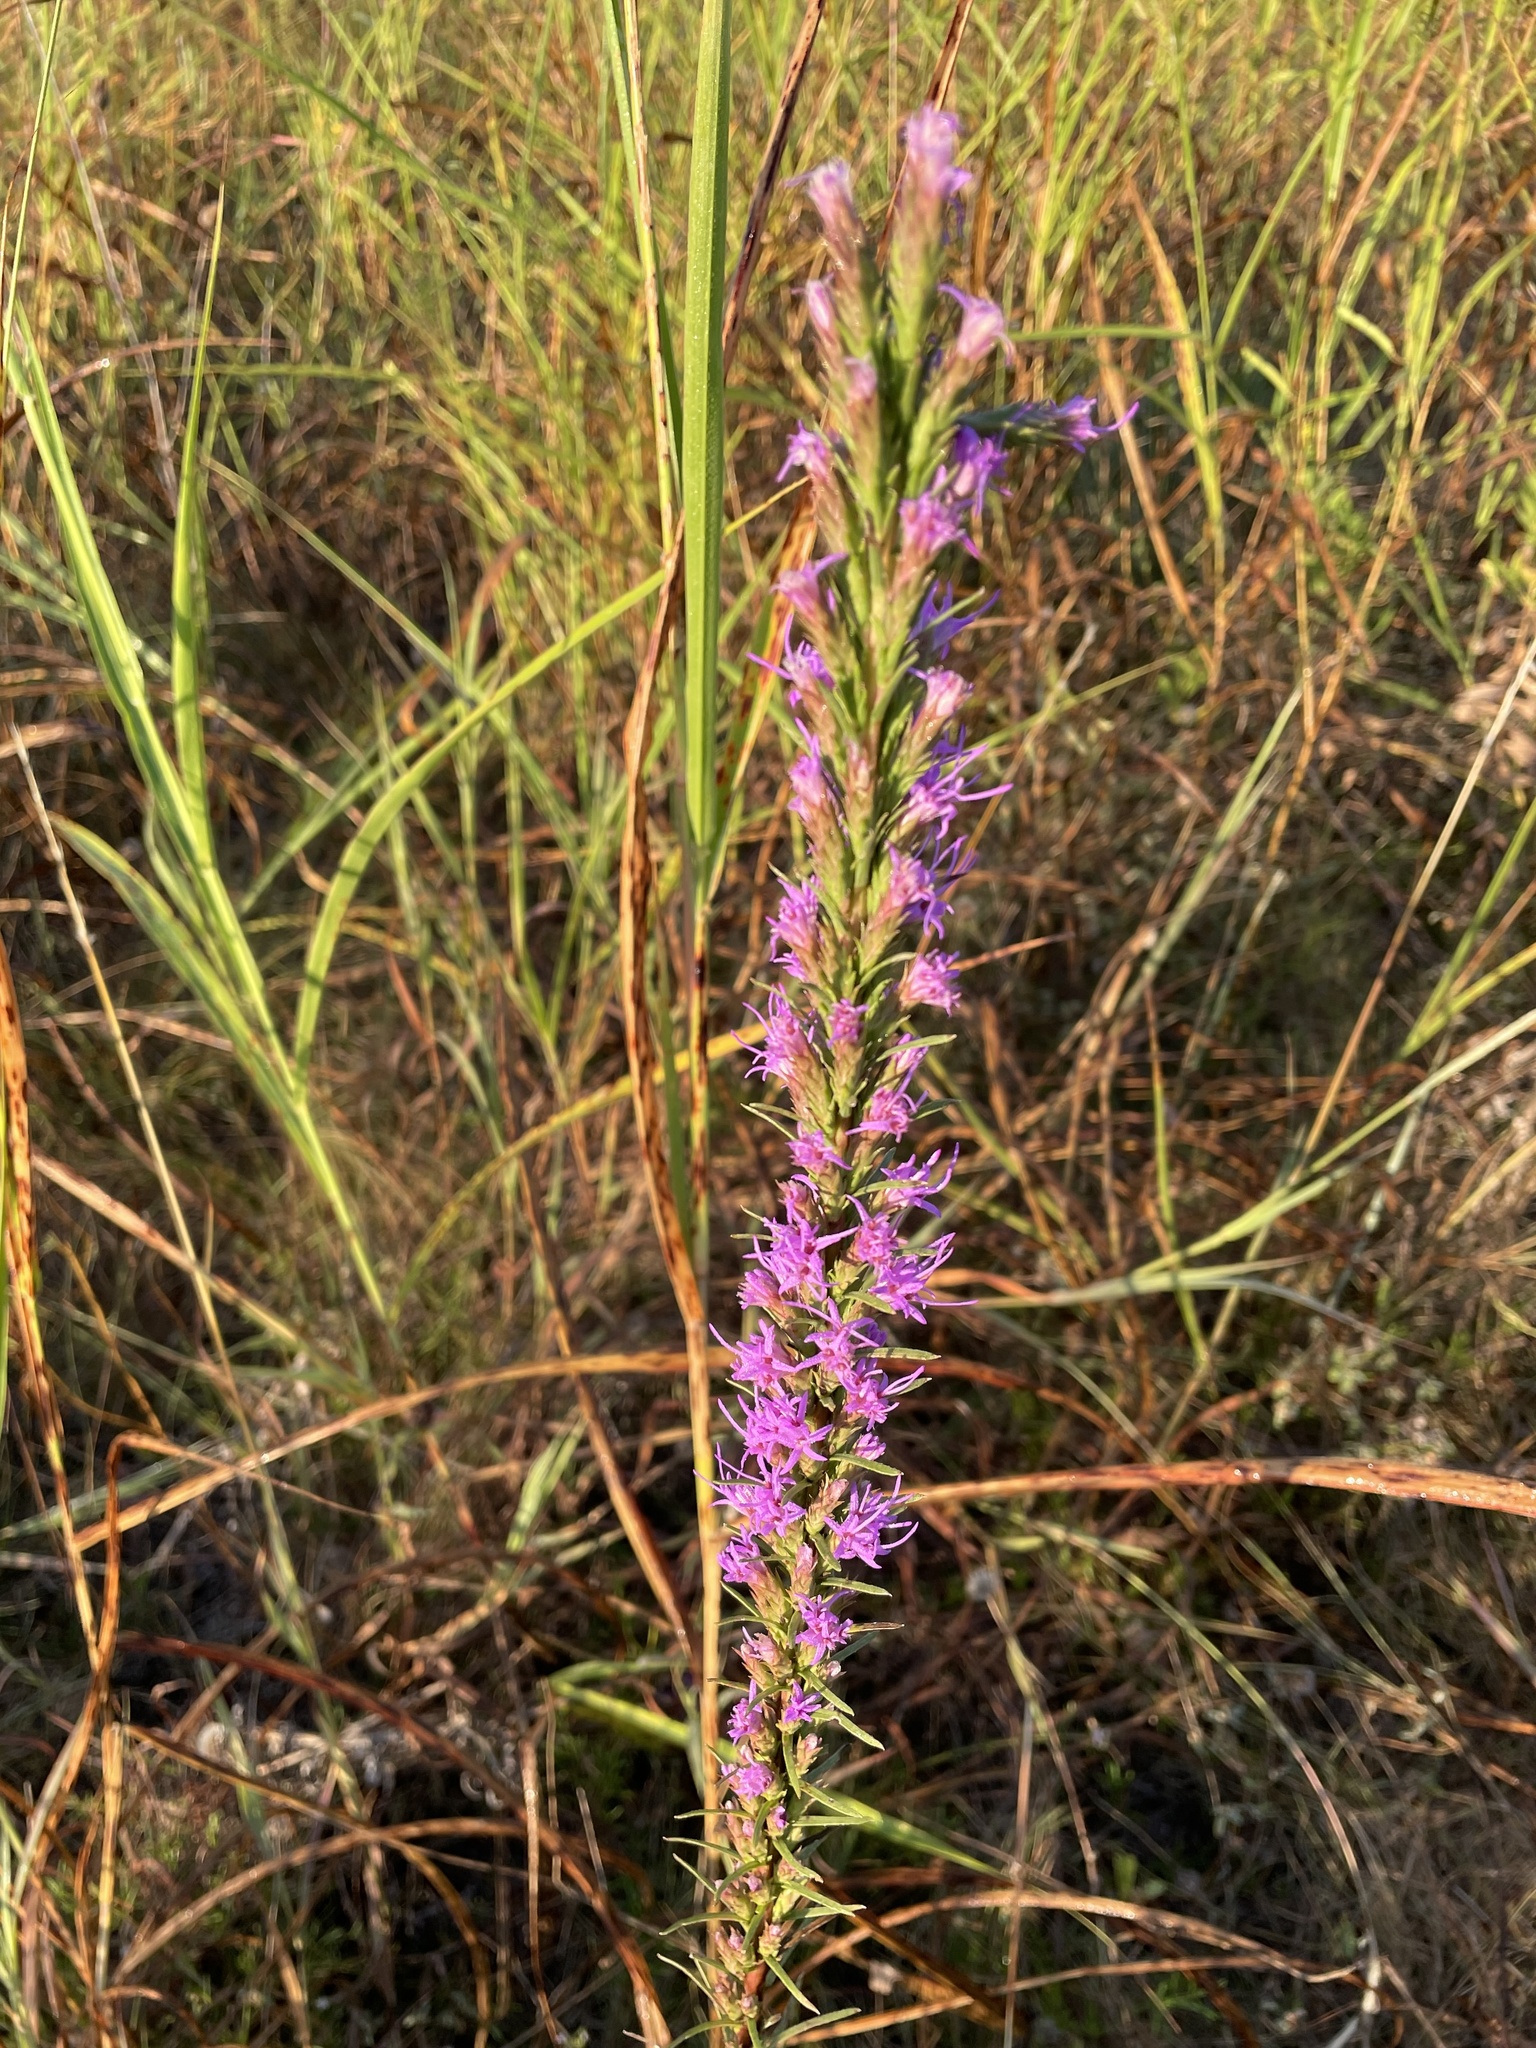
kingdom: Plantae
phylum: Tracheophyta
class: Magnoliopsida
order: Asterales
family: Asteraceae
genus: Liatris
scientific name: Liatris punctata
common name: Dotted gayfeather
